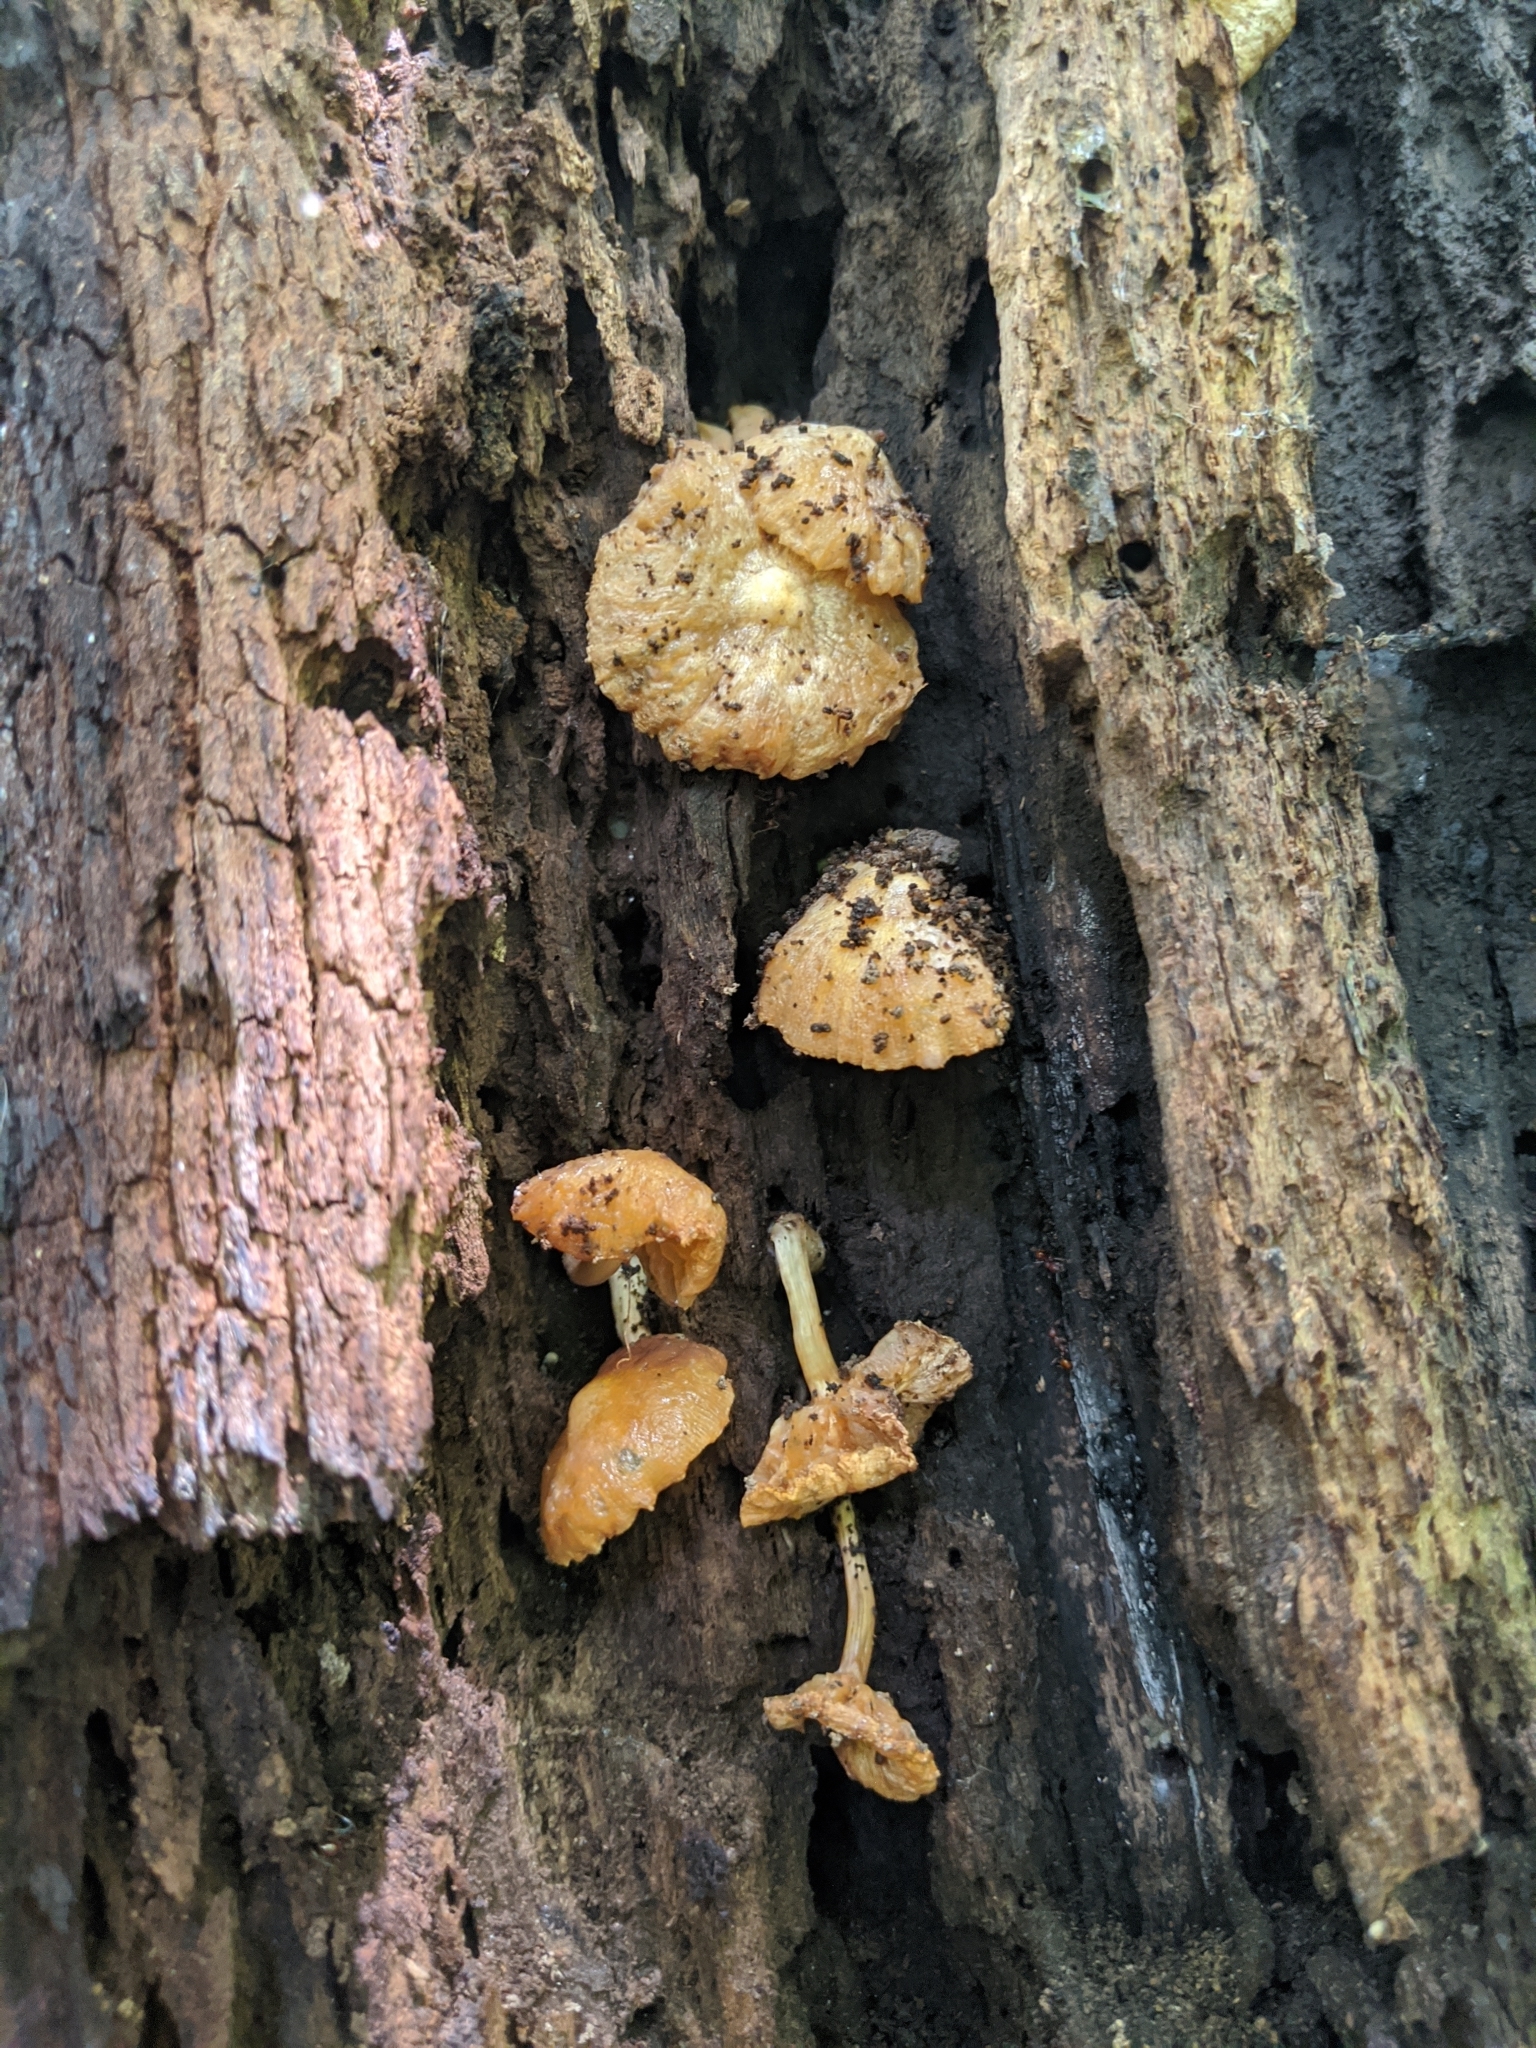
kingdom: Fungi
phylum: Basidiomycota
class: Agaricomycetes
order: Agaricales
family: Pluteaceae
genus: Pluteus
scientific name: Pluteus aurantiorugosus
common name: Flame shield
